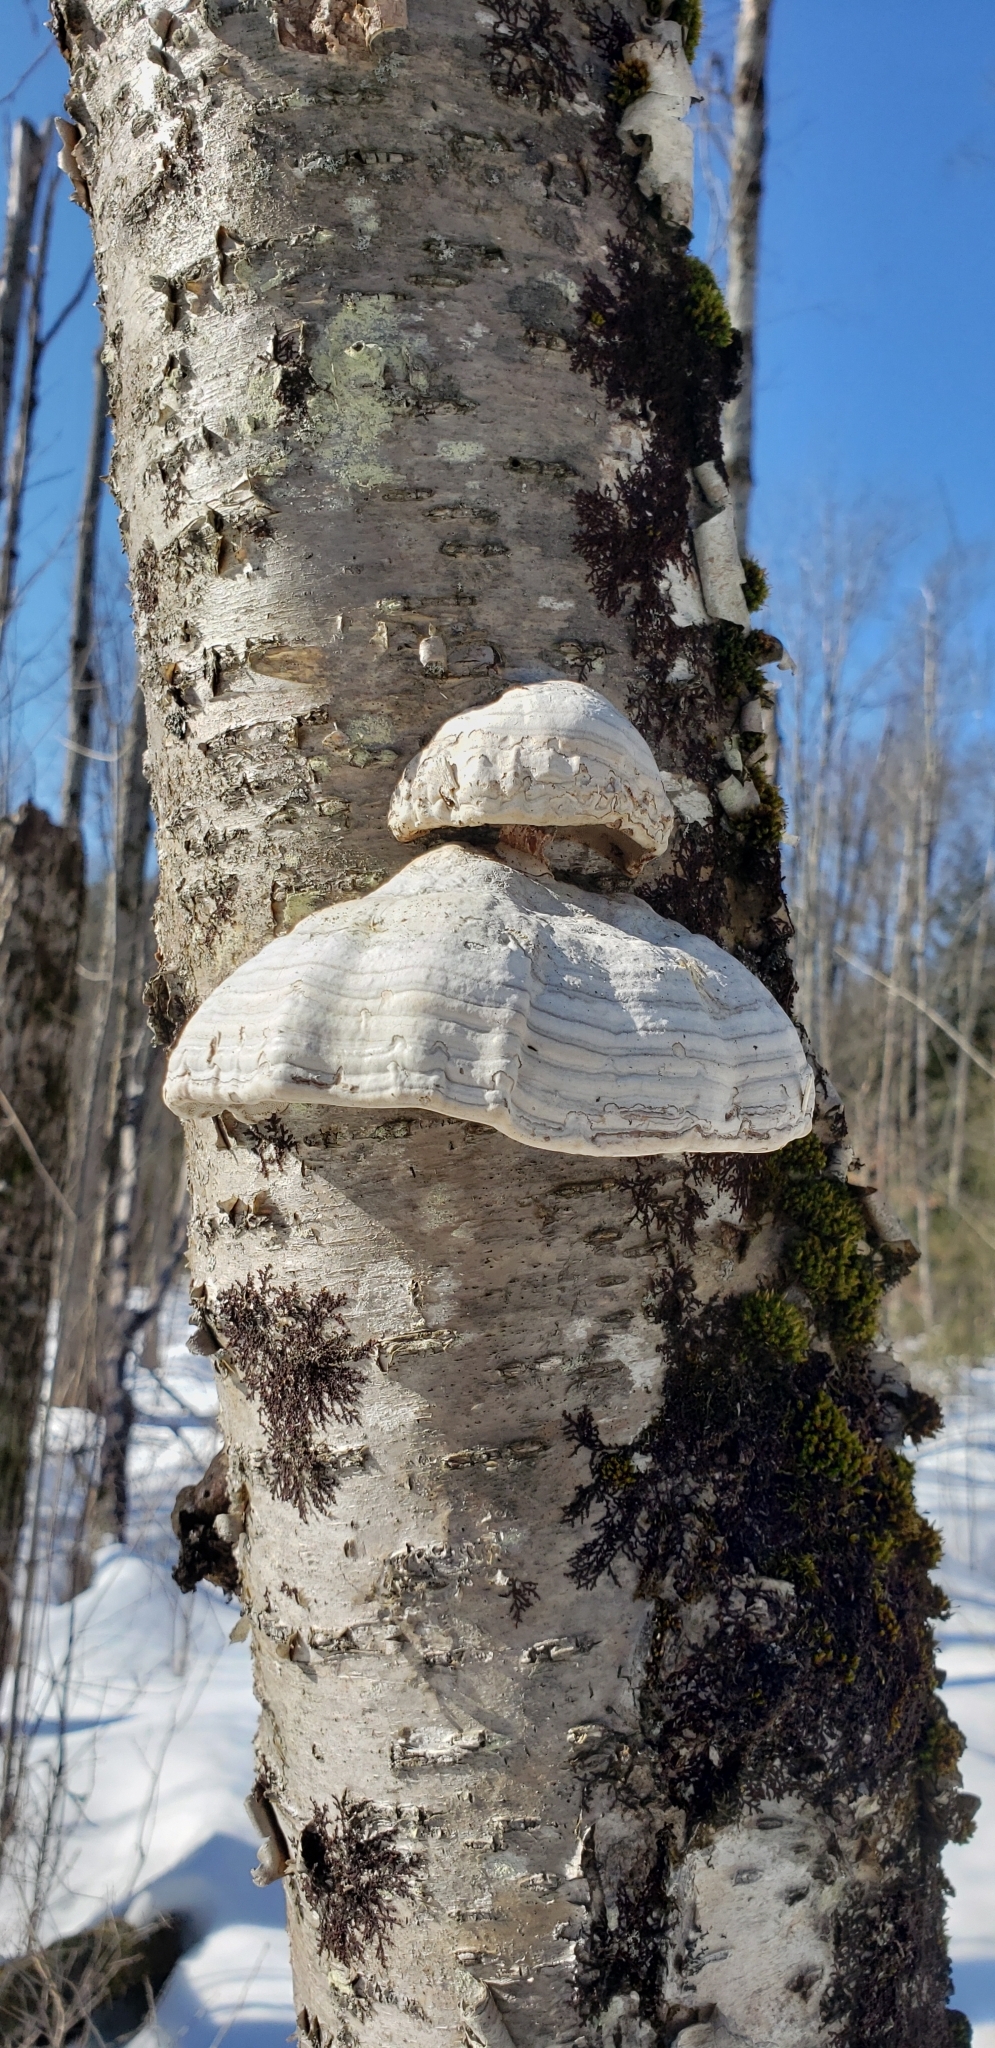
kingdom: Fungi
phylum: Basidiomycota
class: Agaricomycetes
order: Polyporales
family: Polyporaceae
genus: Fomes
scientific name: Fomes fomentarius
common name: Hoof fungus
